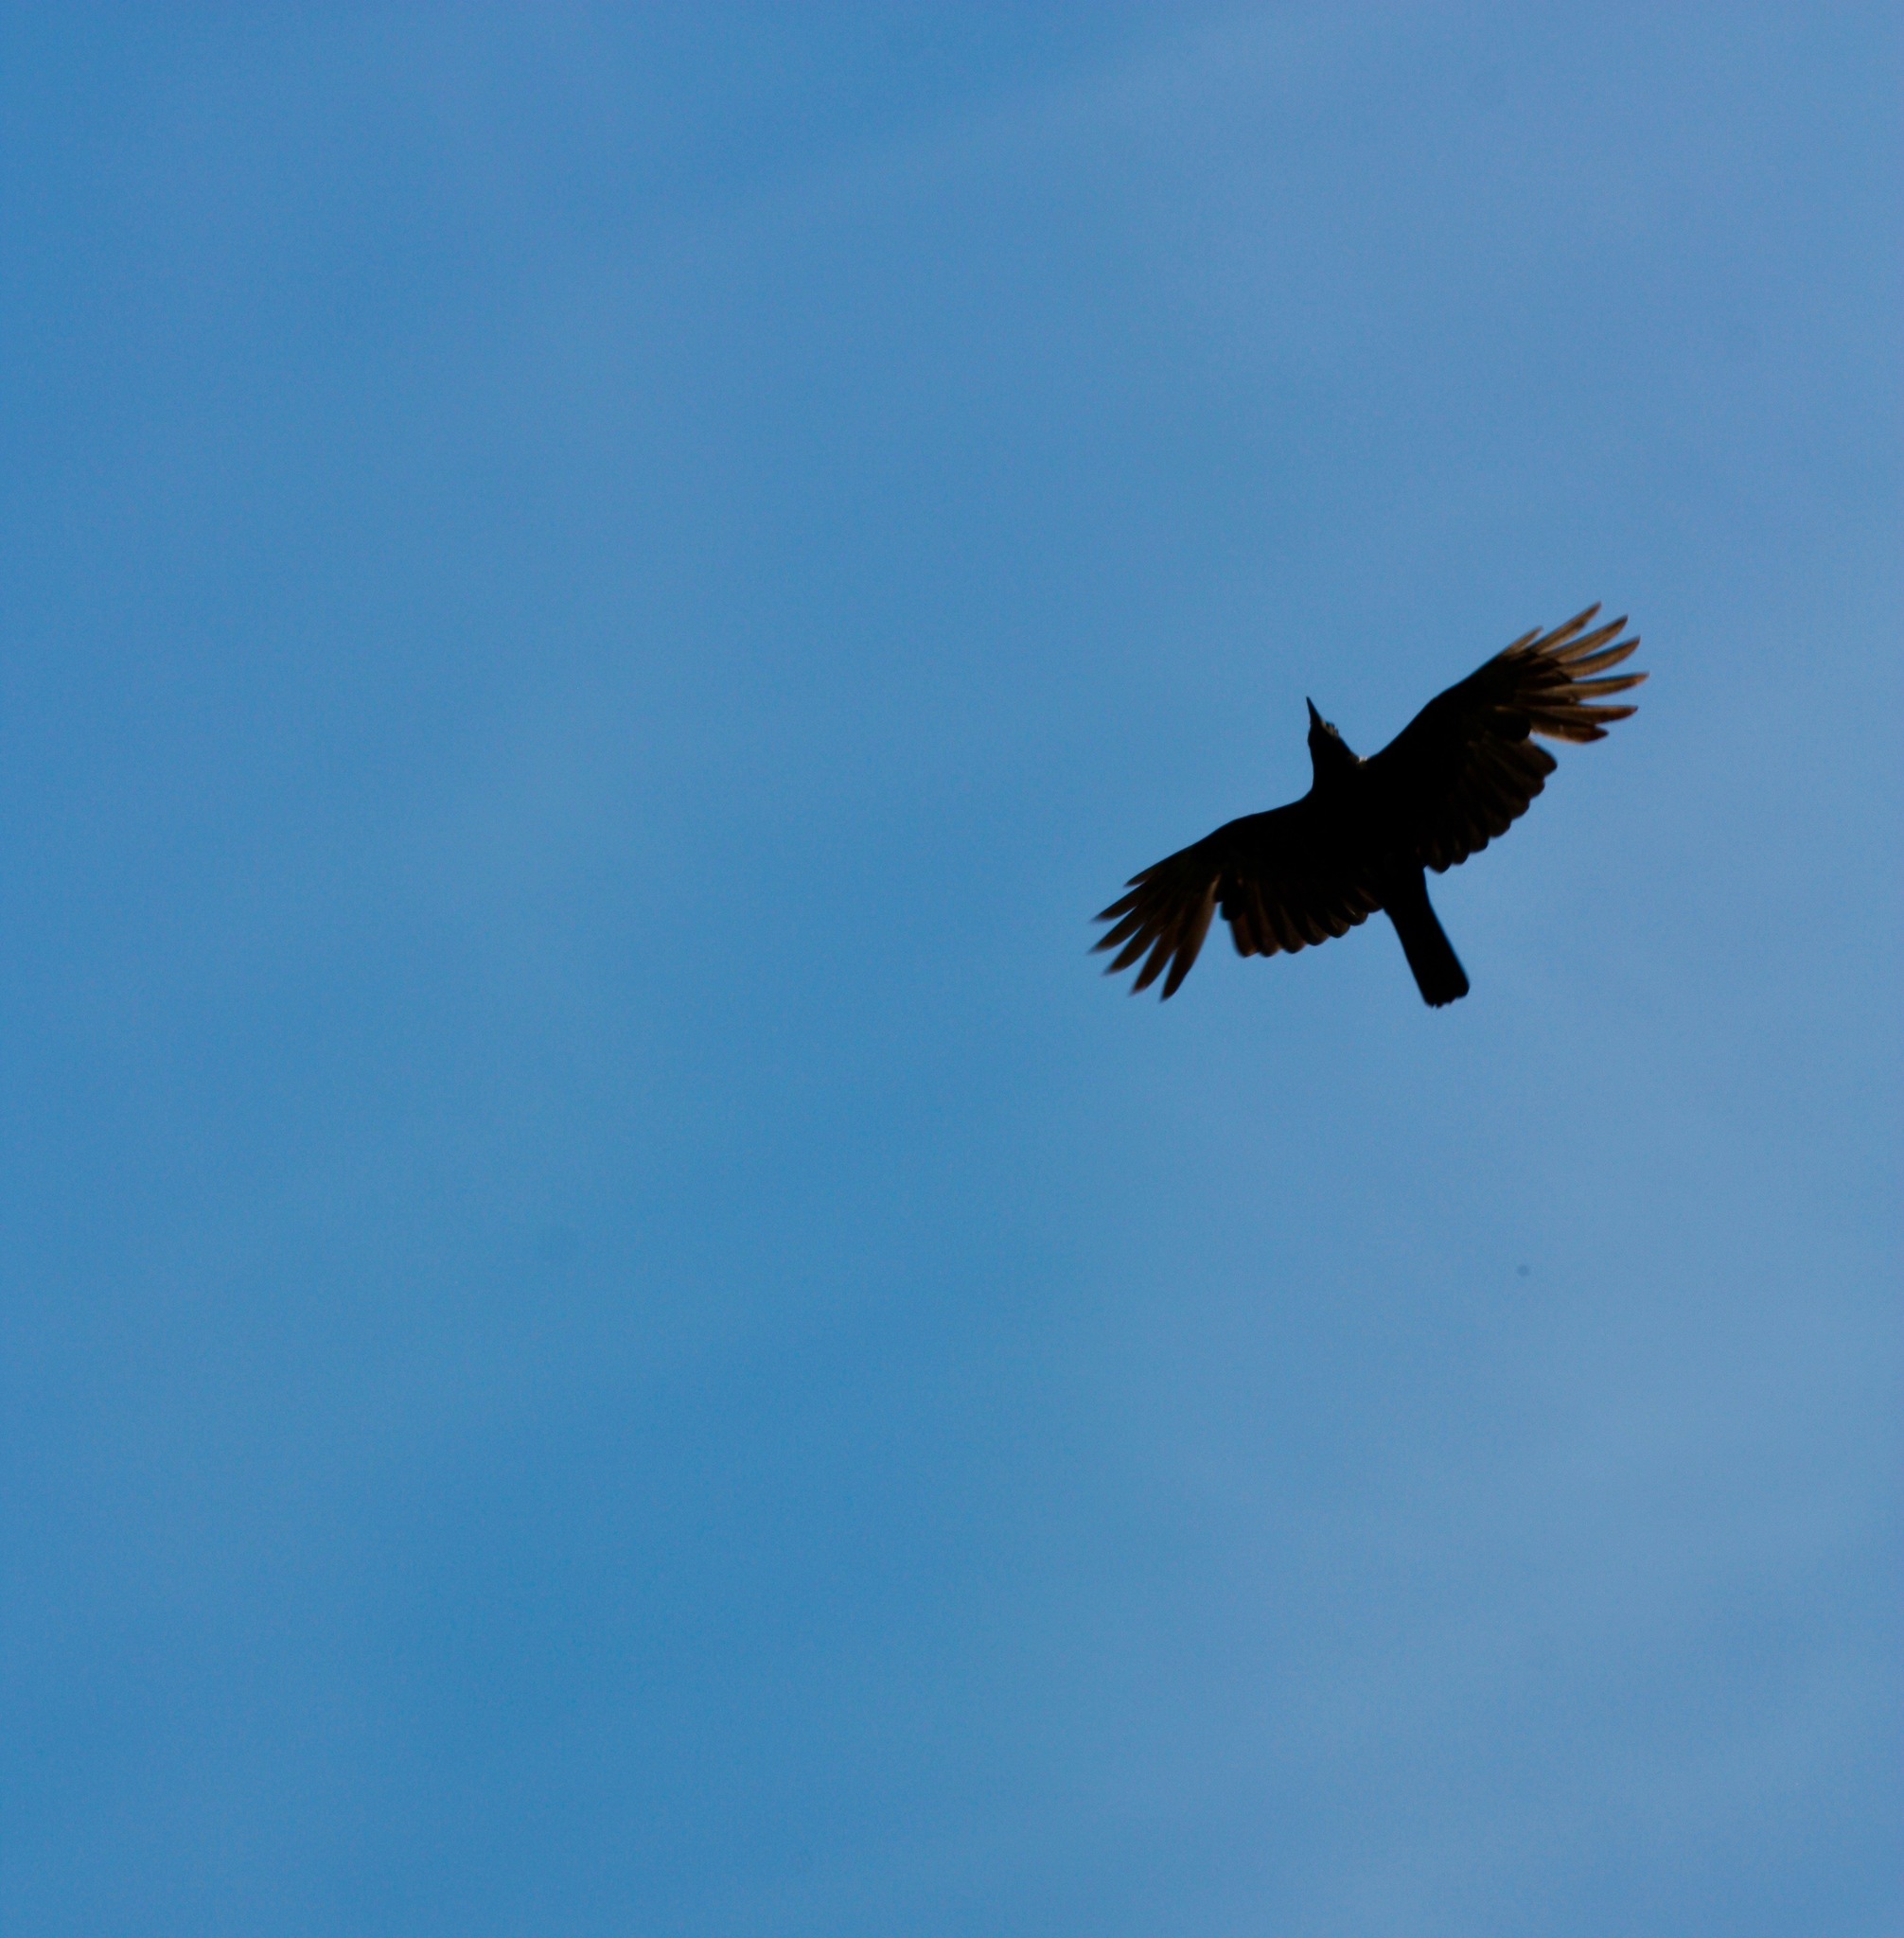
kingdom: Animalia
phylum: Chordata
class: Aves
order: Passeriformes
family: Corvidae
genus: Corvus
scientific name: Corvus brachyrhynchos
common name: American crow
